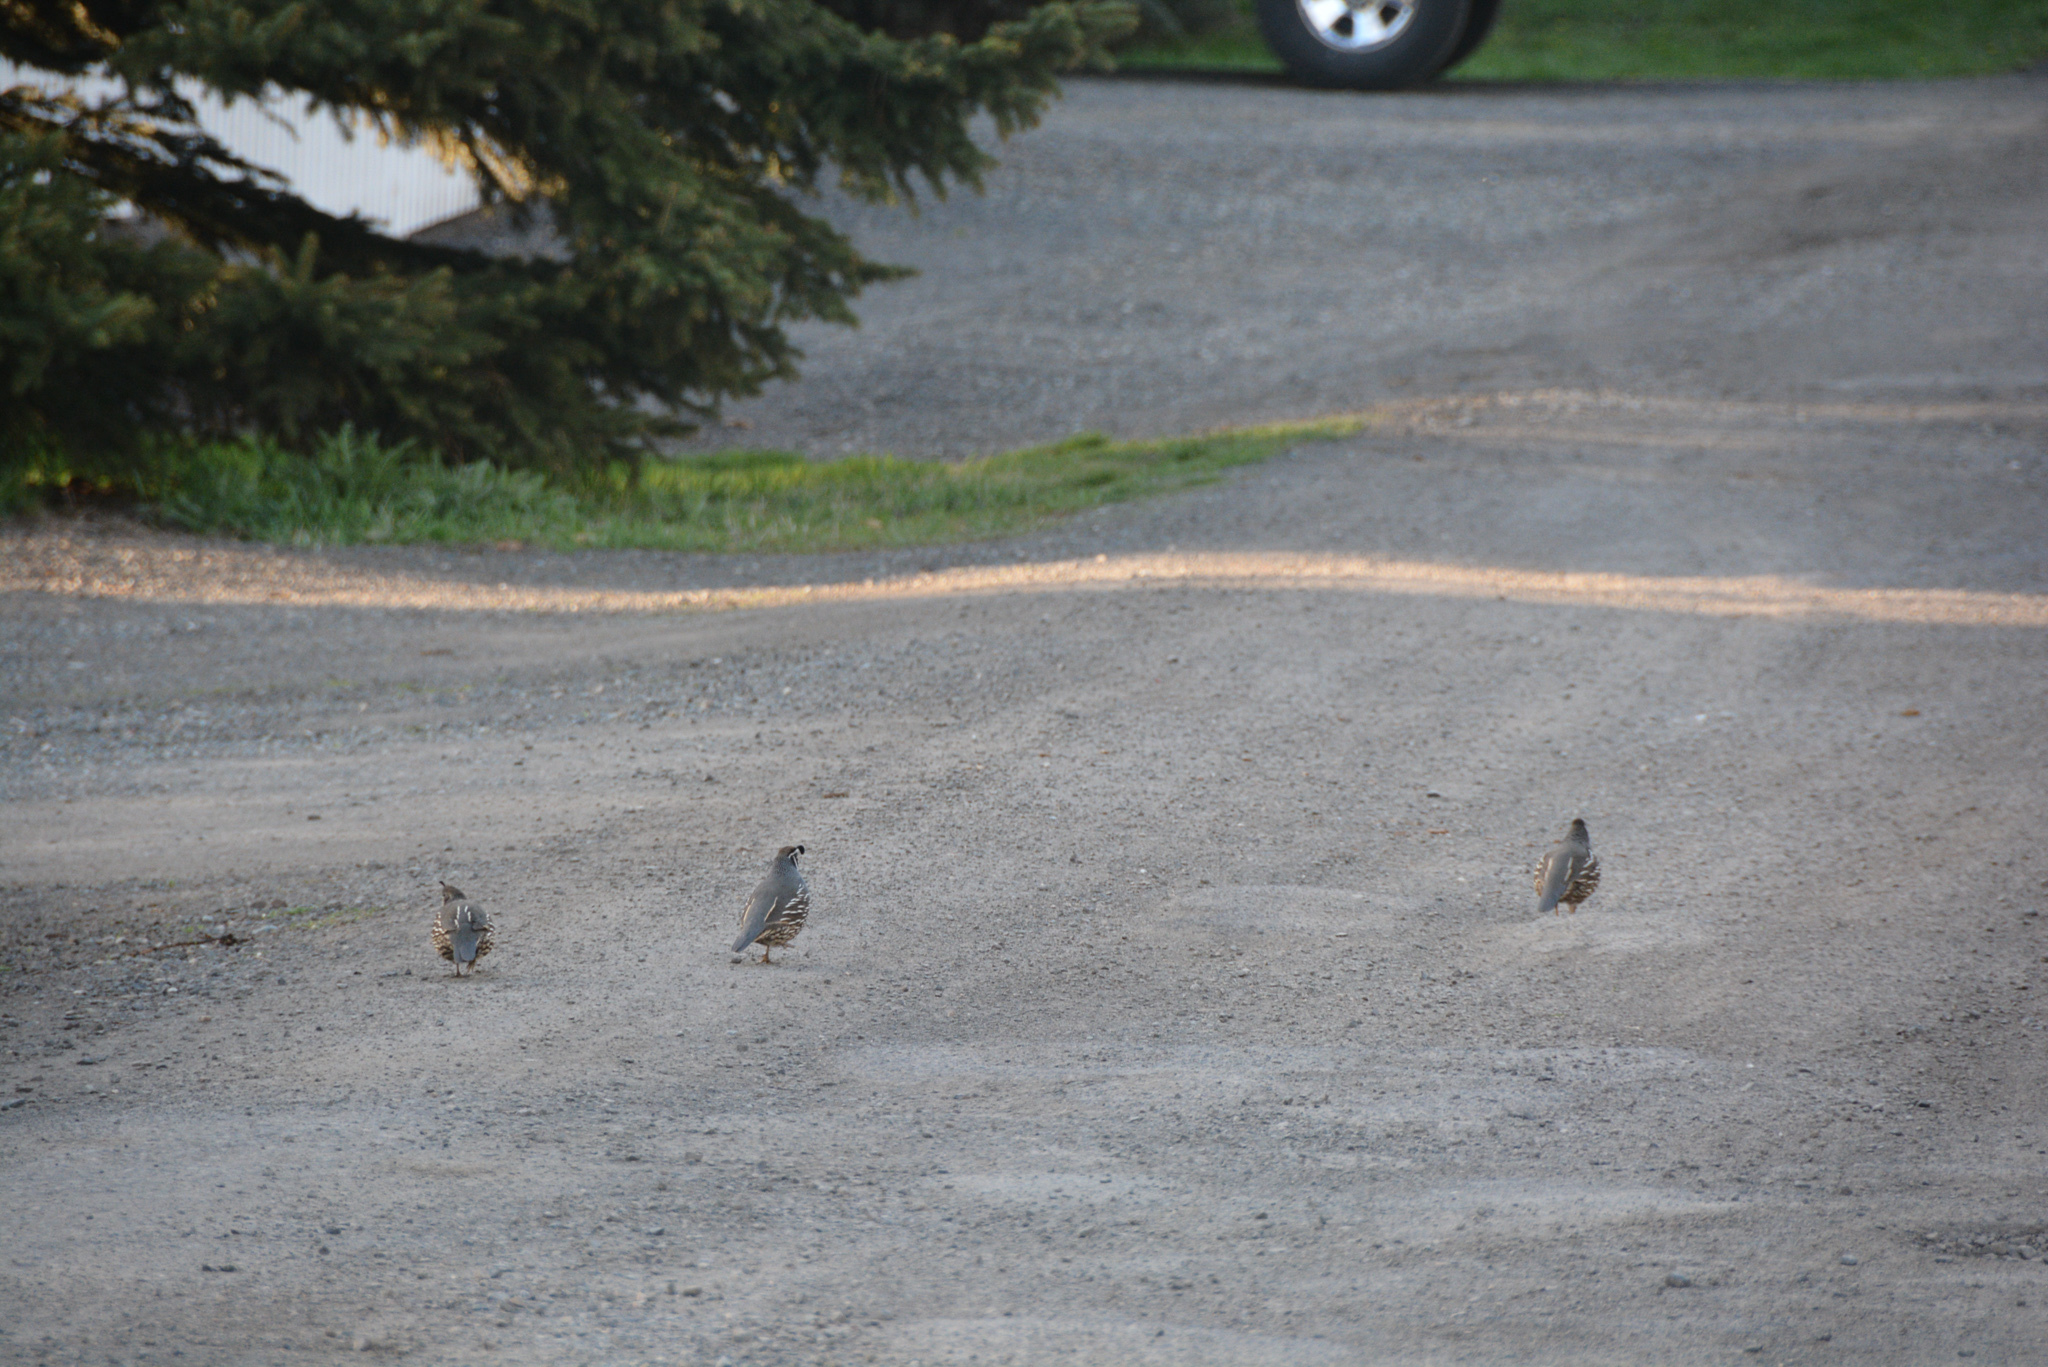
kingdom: Animalia
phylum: Chordata
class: Aves
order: Galliformes
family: Odontophoridae
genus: Callipepla
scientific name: Callipepla californica
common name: California quail
